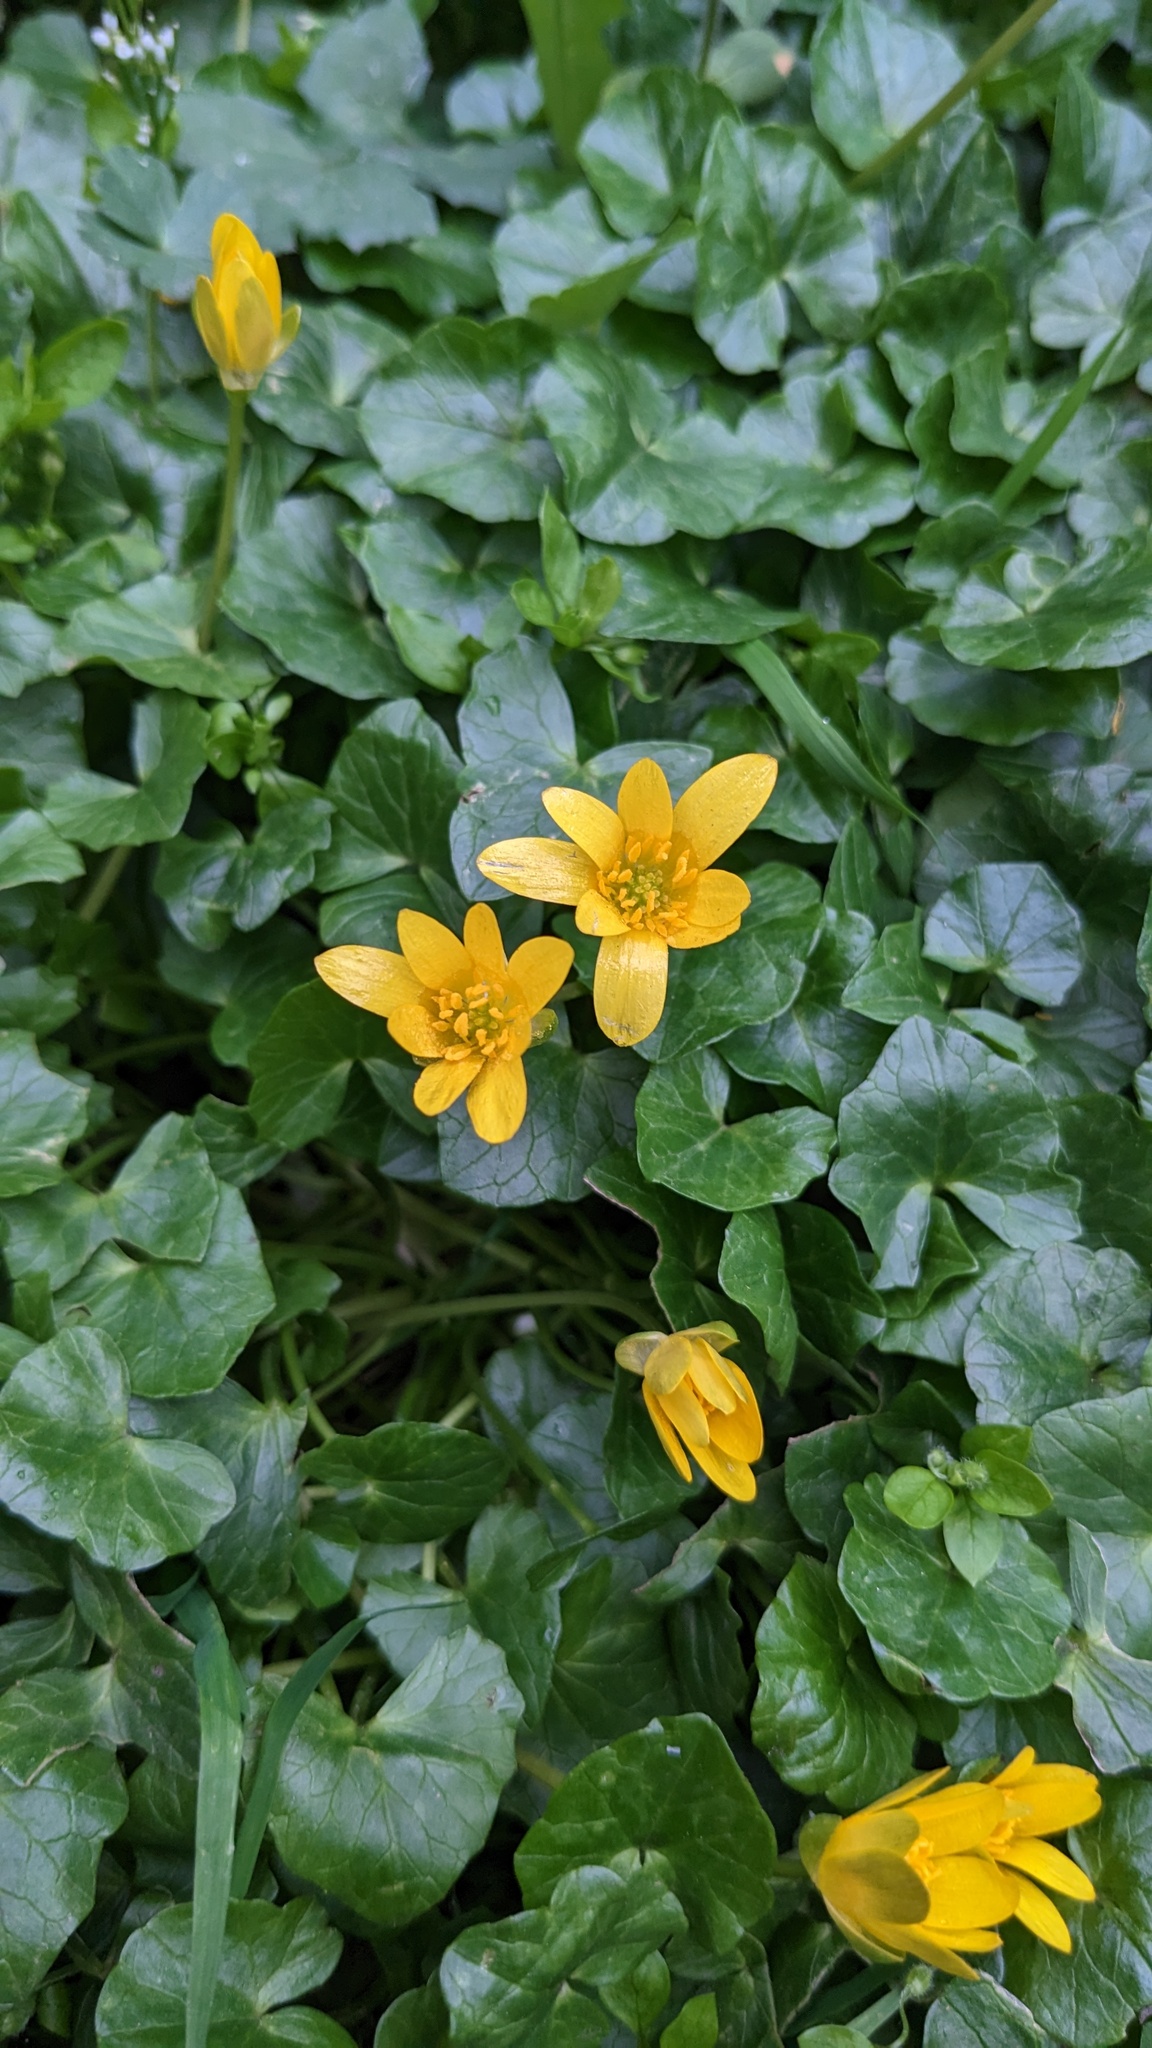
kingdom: Plantae
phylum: Tracheophyta
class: Magnoliopsida
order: Ranunculales
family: Ranunculaceae
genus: Ficaria
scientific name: Ficaria verna
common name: Lesser celandine
